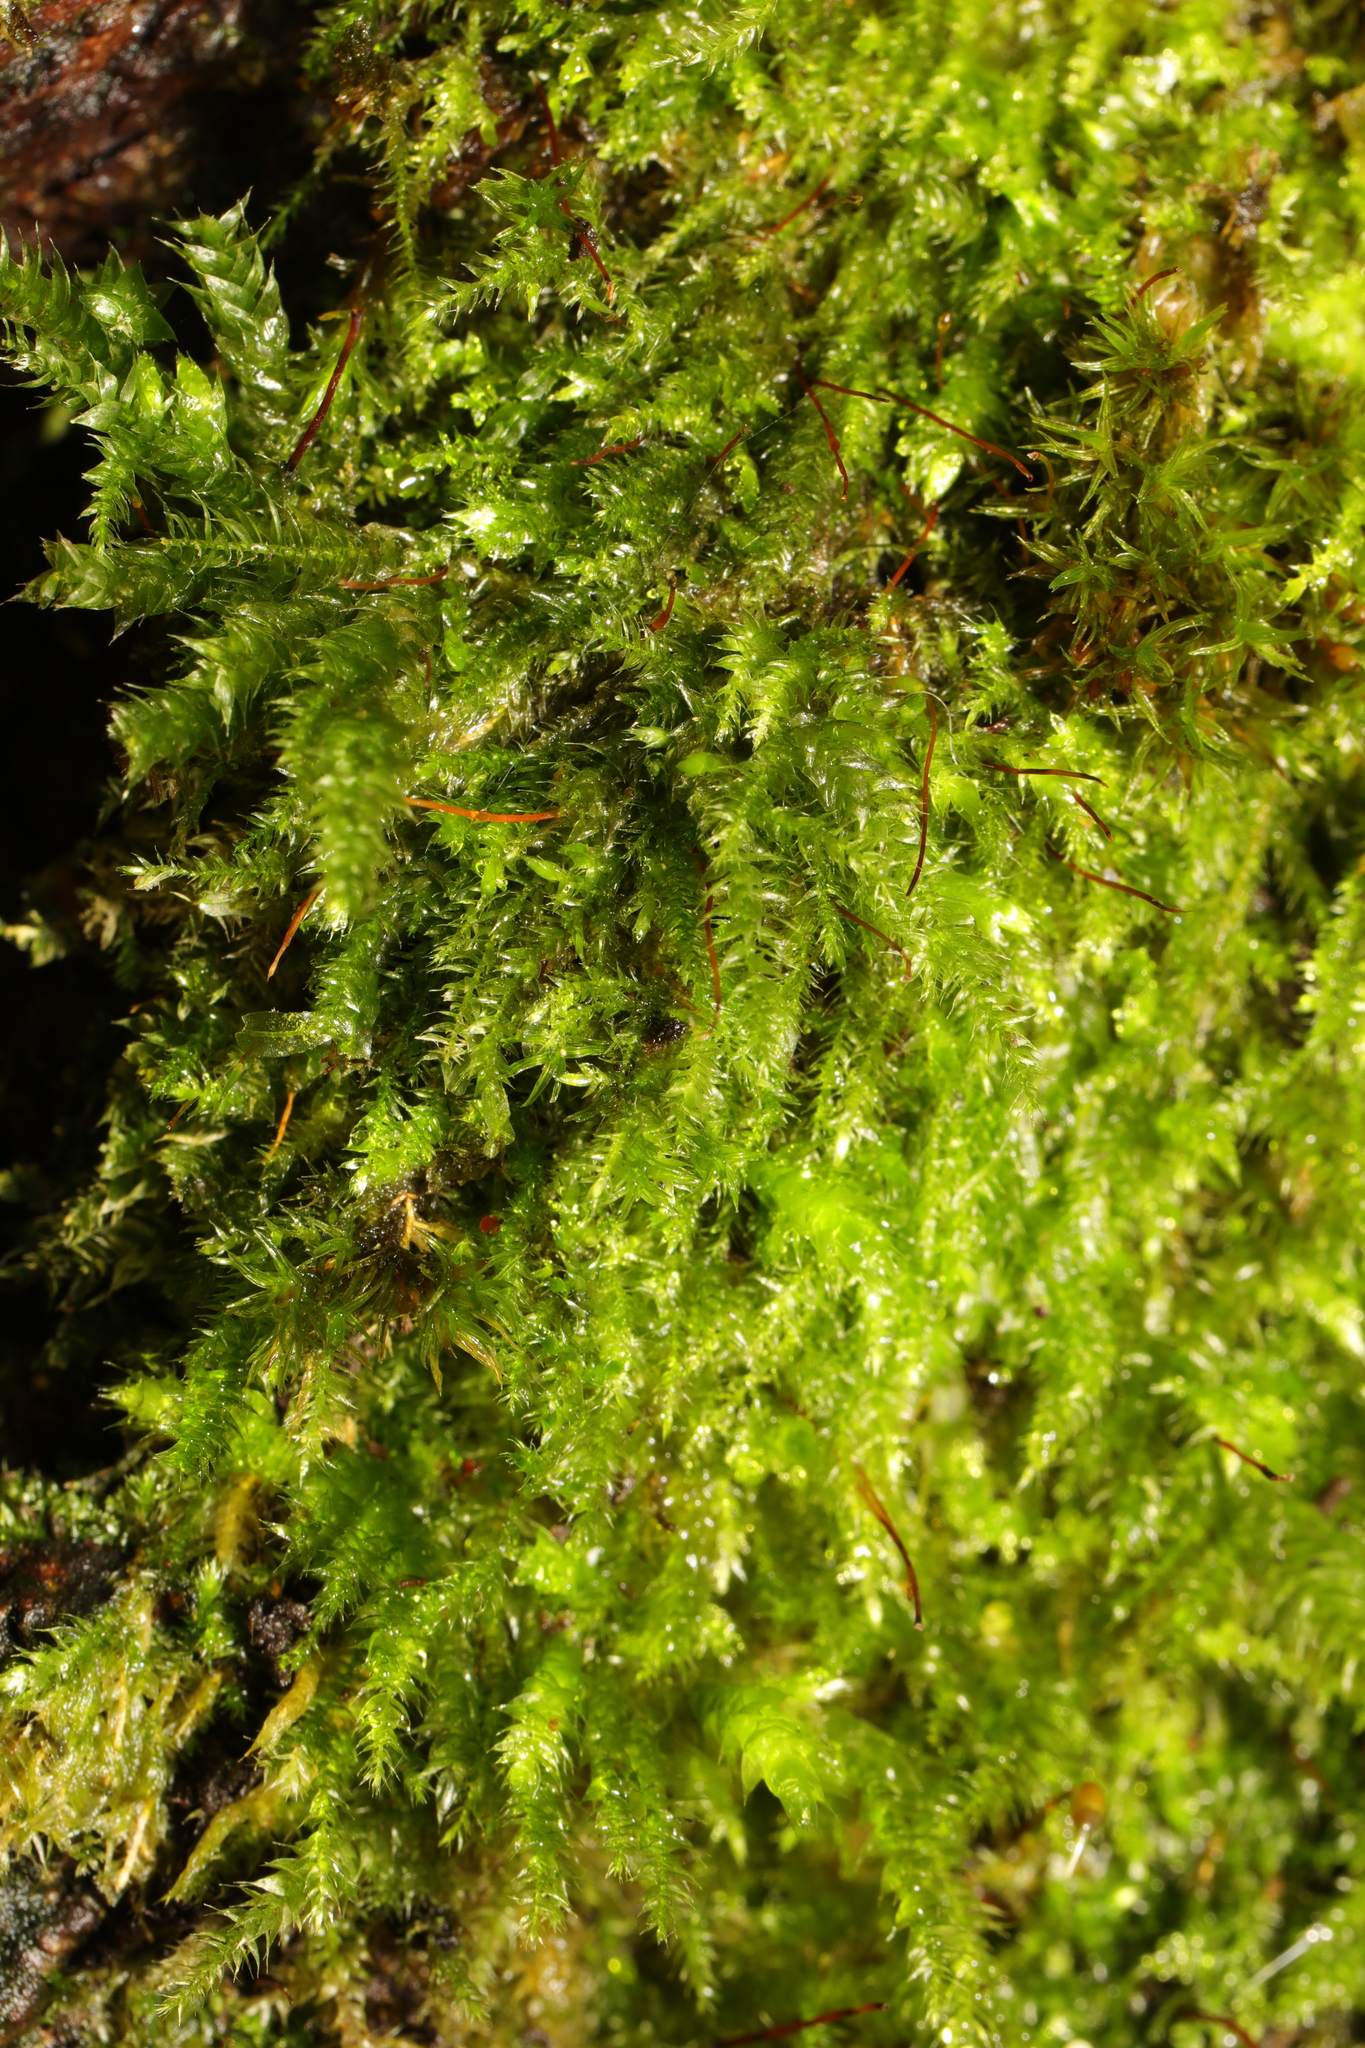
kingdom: Plantae
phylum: Bryophyta
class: Bryopsida
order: Hypnales
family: Brachytheciaceae
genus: Rhynchostegium
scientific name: Rhynchostegium confertum
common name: Clustered feather-moss
